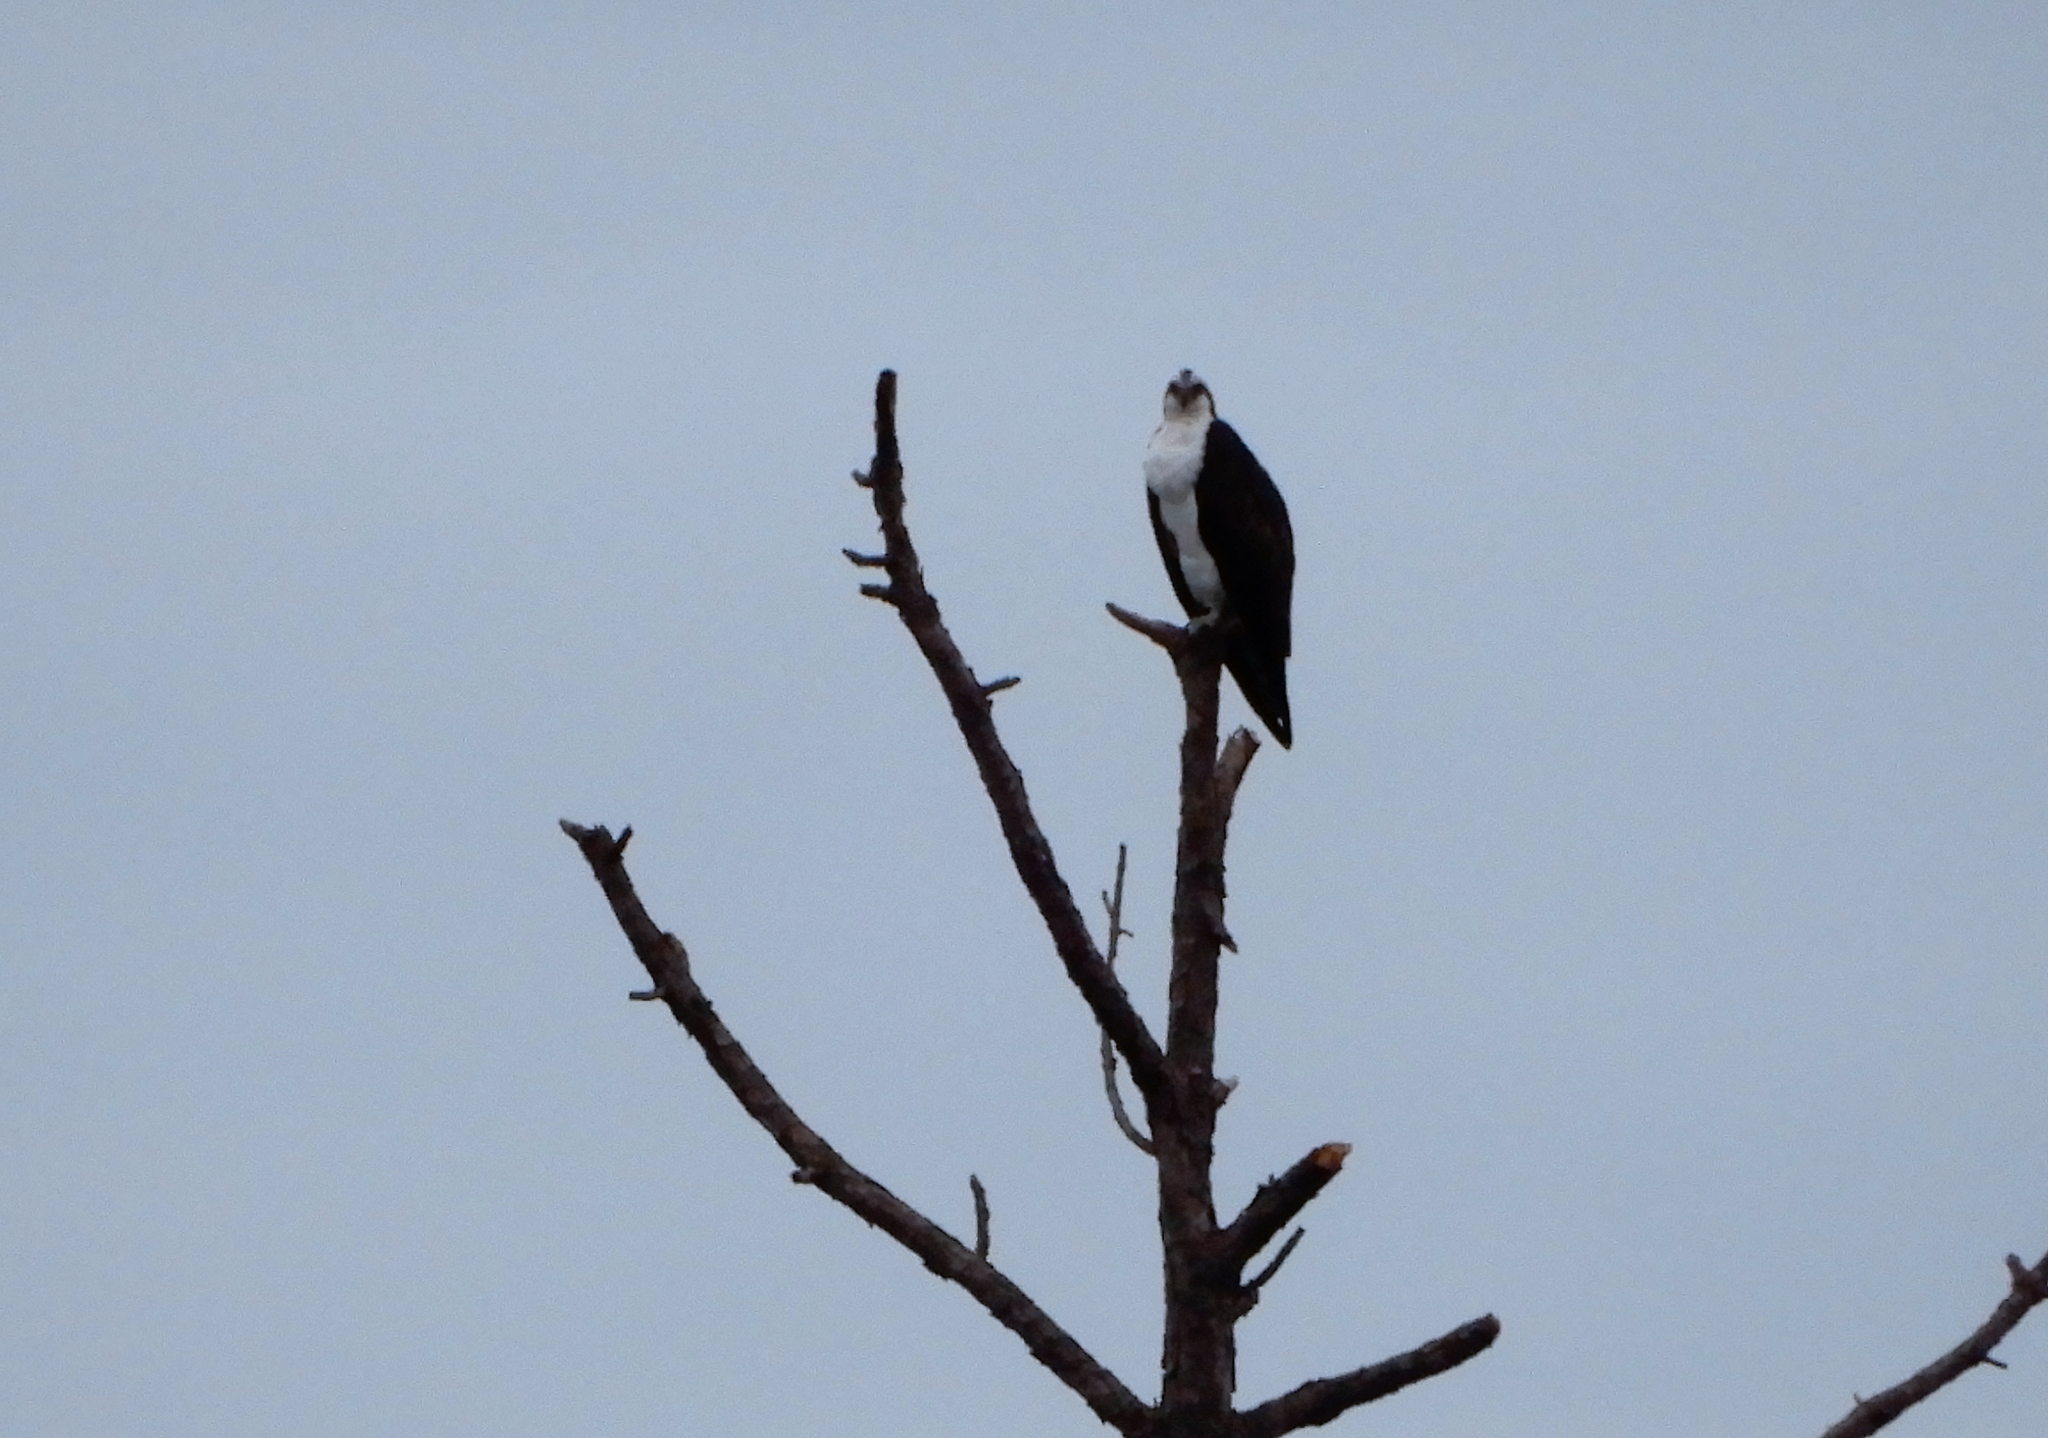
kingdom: Animalia
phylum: Chordata
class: Aves
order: Accipitriformes
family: Pandionidae
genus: Pandion
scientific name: Pandion haliaetus
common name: Osprey
